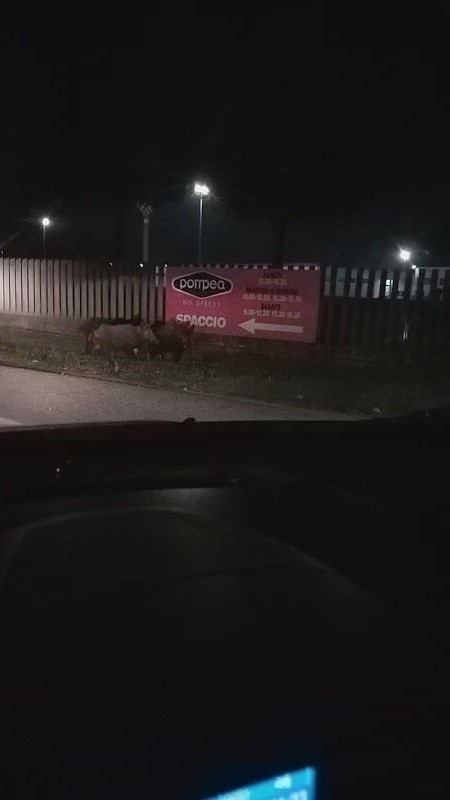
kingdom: Animalia
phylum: Chordata
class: Mammalia
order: Artiodactyla
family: Suidae
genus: Sus
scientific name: Sus scrofa
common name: Wild boar
